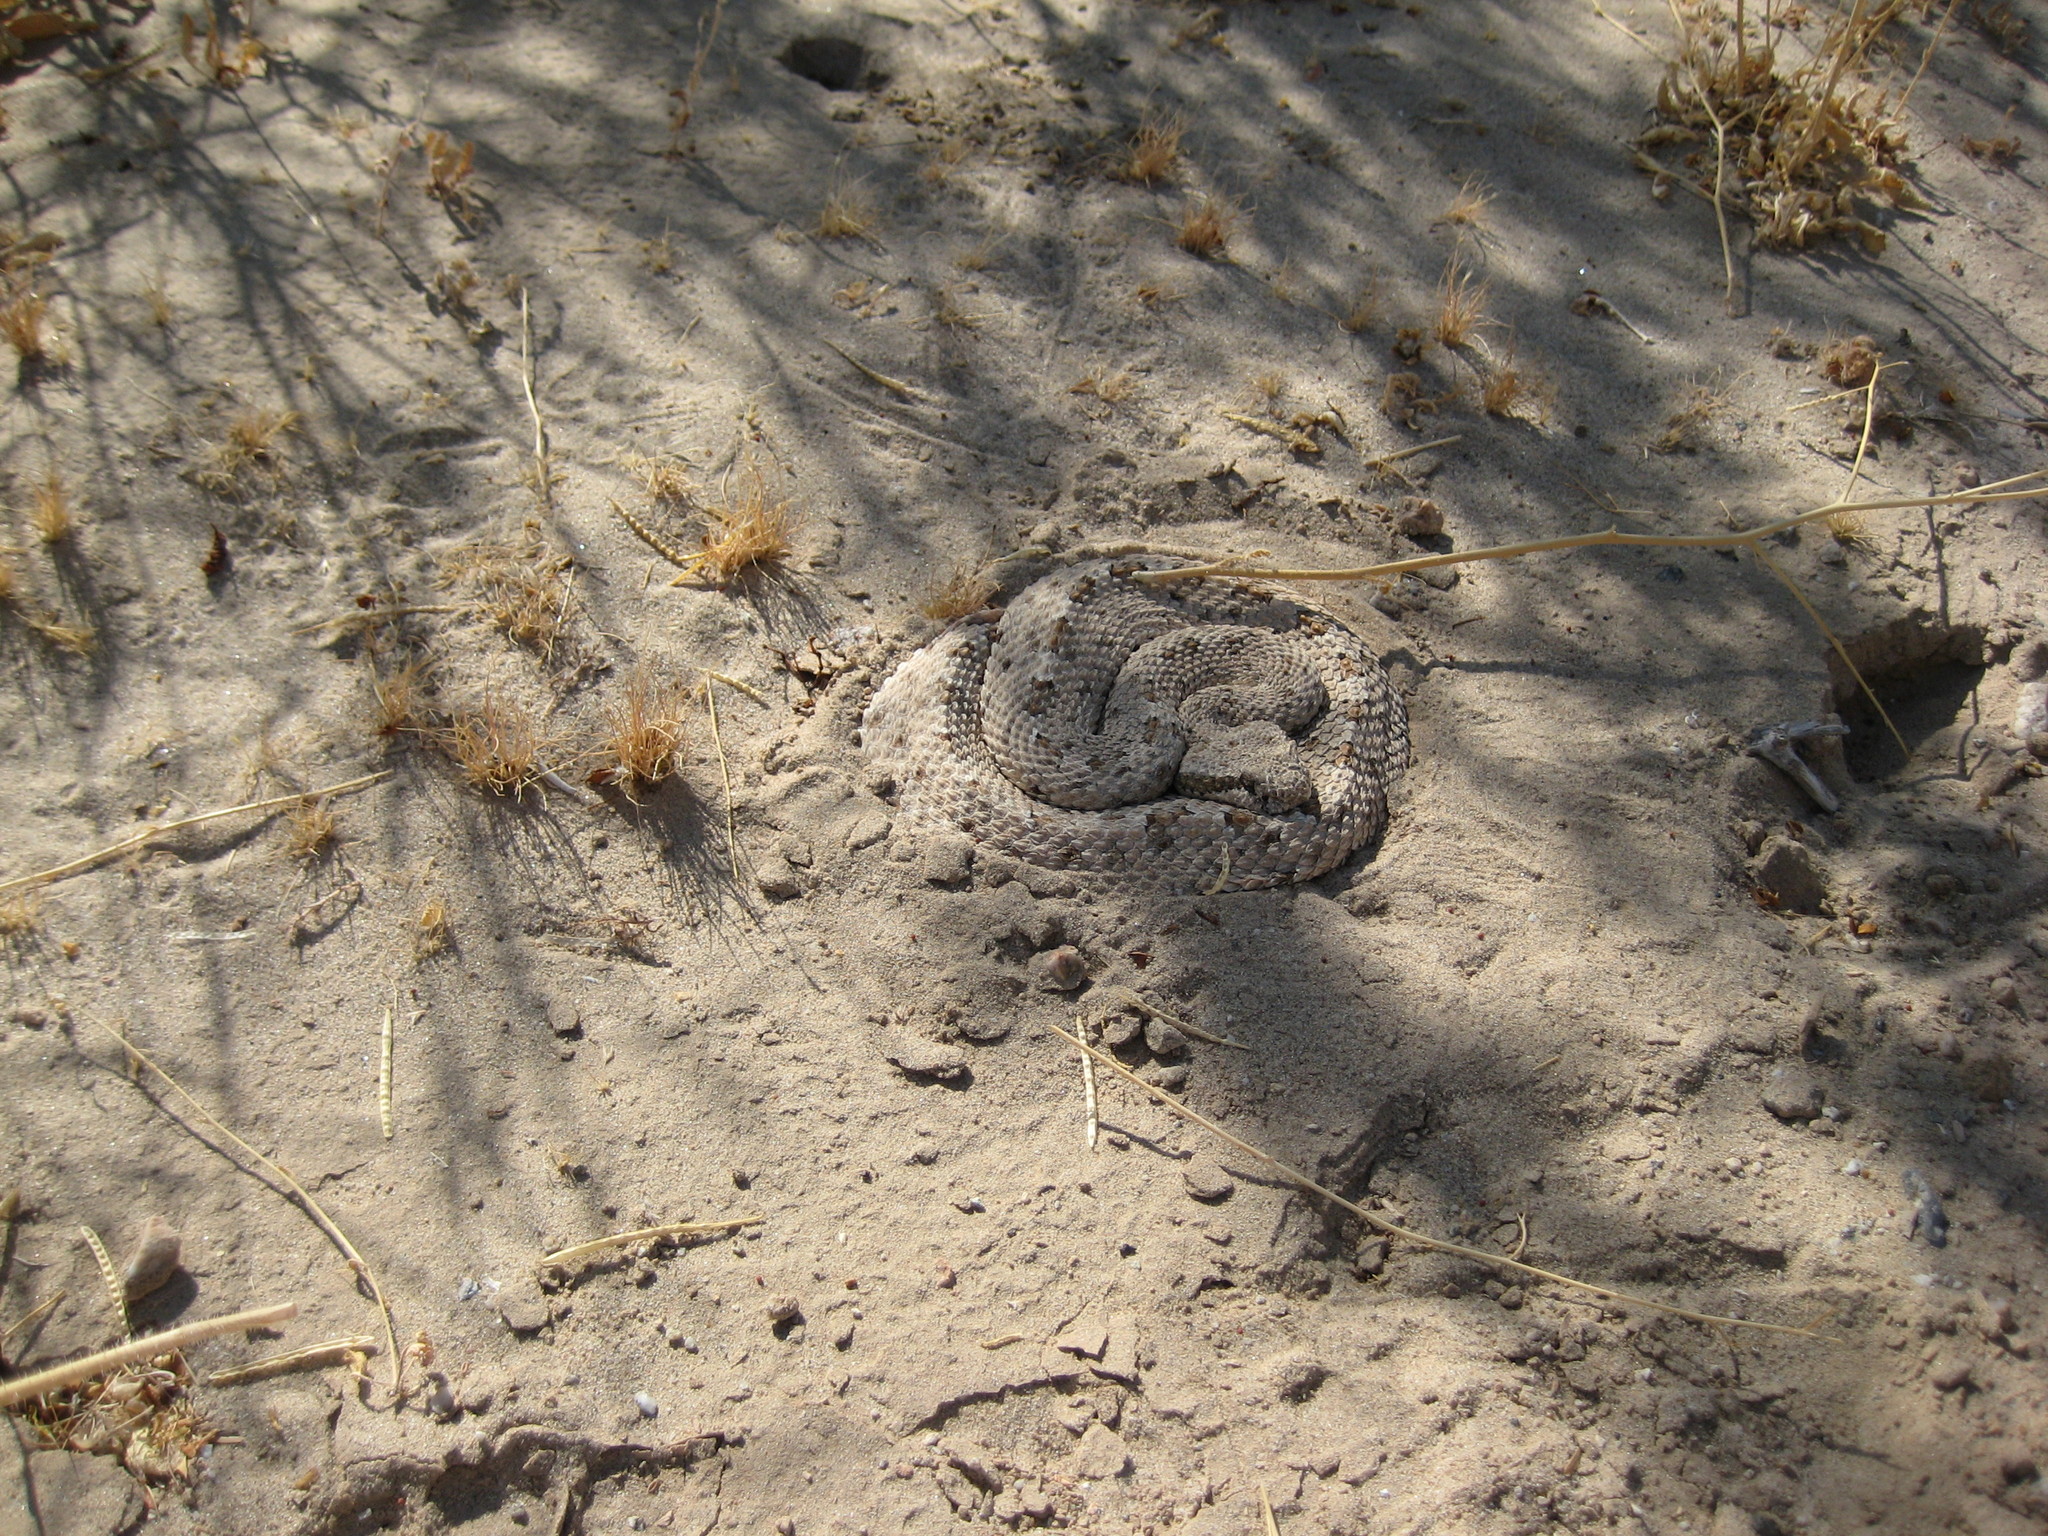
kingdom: Animalia
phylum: Chordata
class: Squamata
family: Viperidae
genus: Crotalus
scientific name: Crotalus cerastes
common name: Sidewinder
